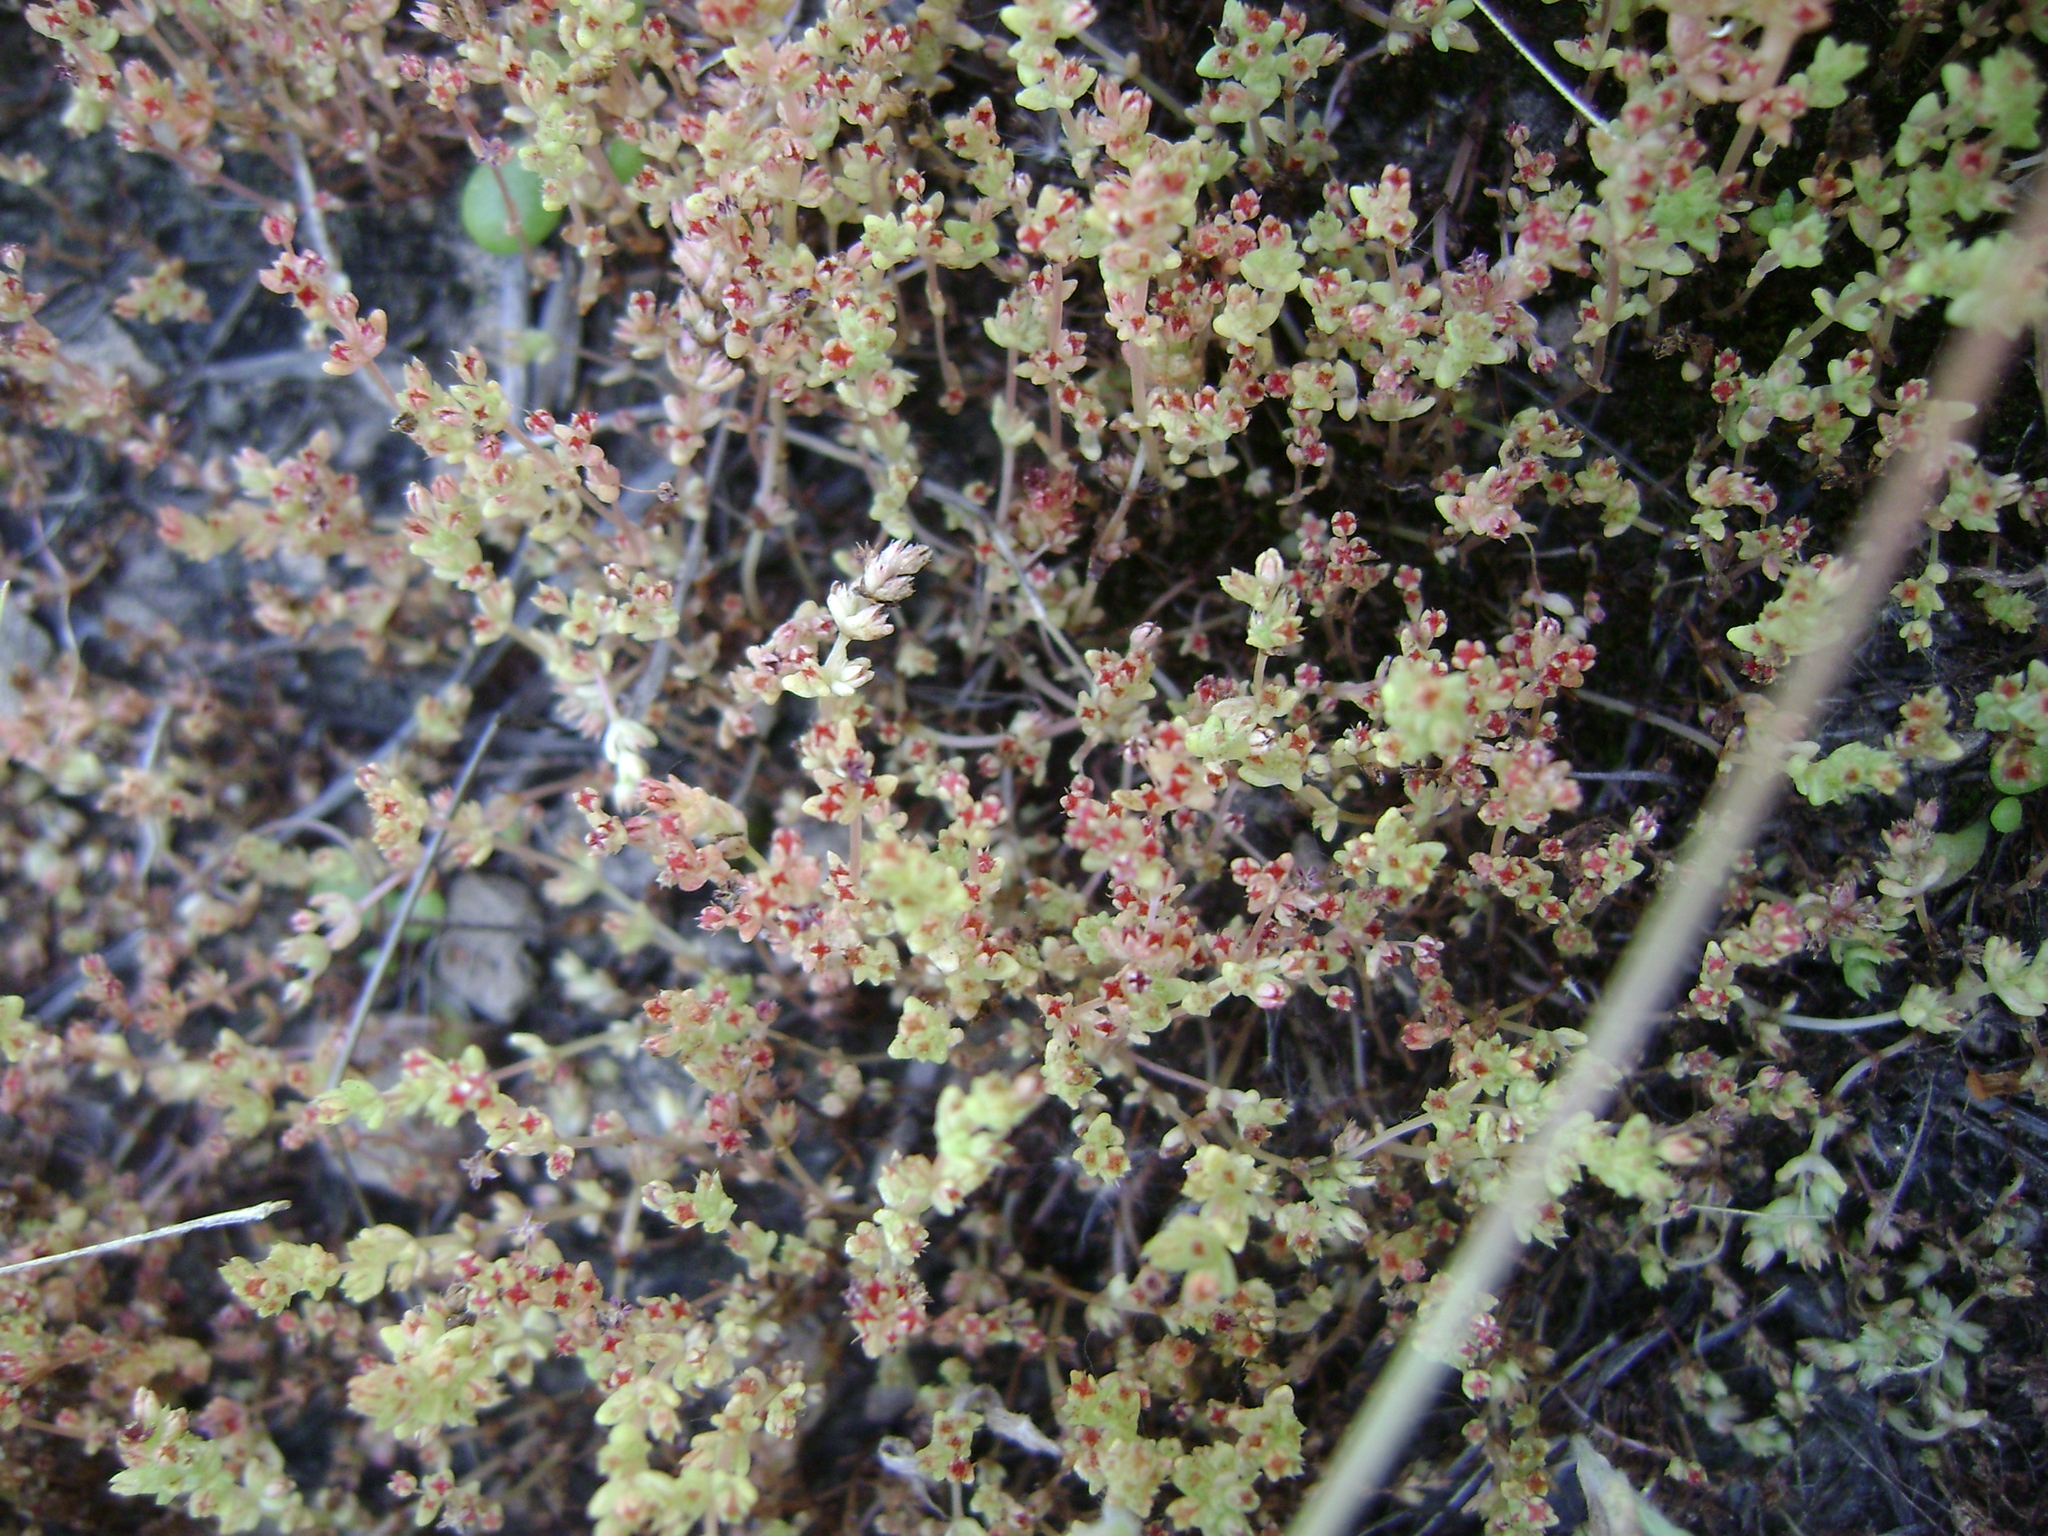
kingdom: Plantae
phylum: Tracheophyta
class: Magnoliopsida
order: Saxifragales
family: Crassulaceae
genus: Crassula
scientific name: Crassula connata
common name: Erect pygmyweed
